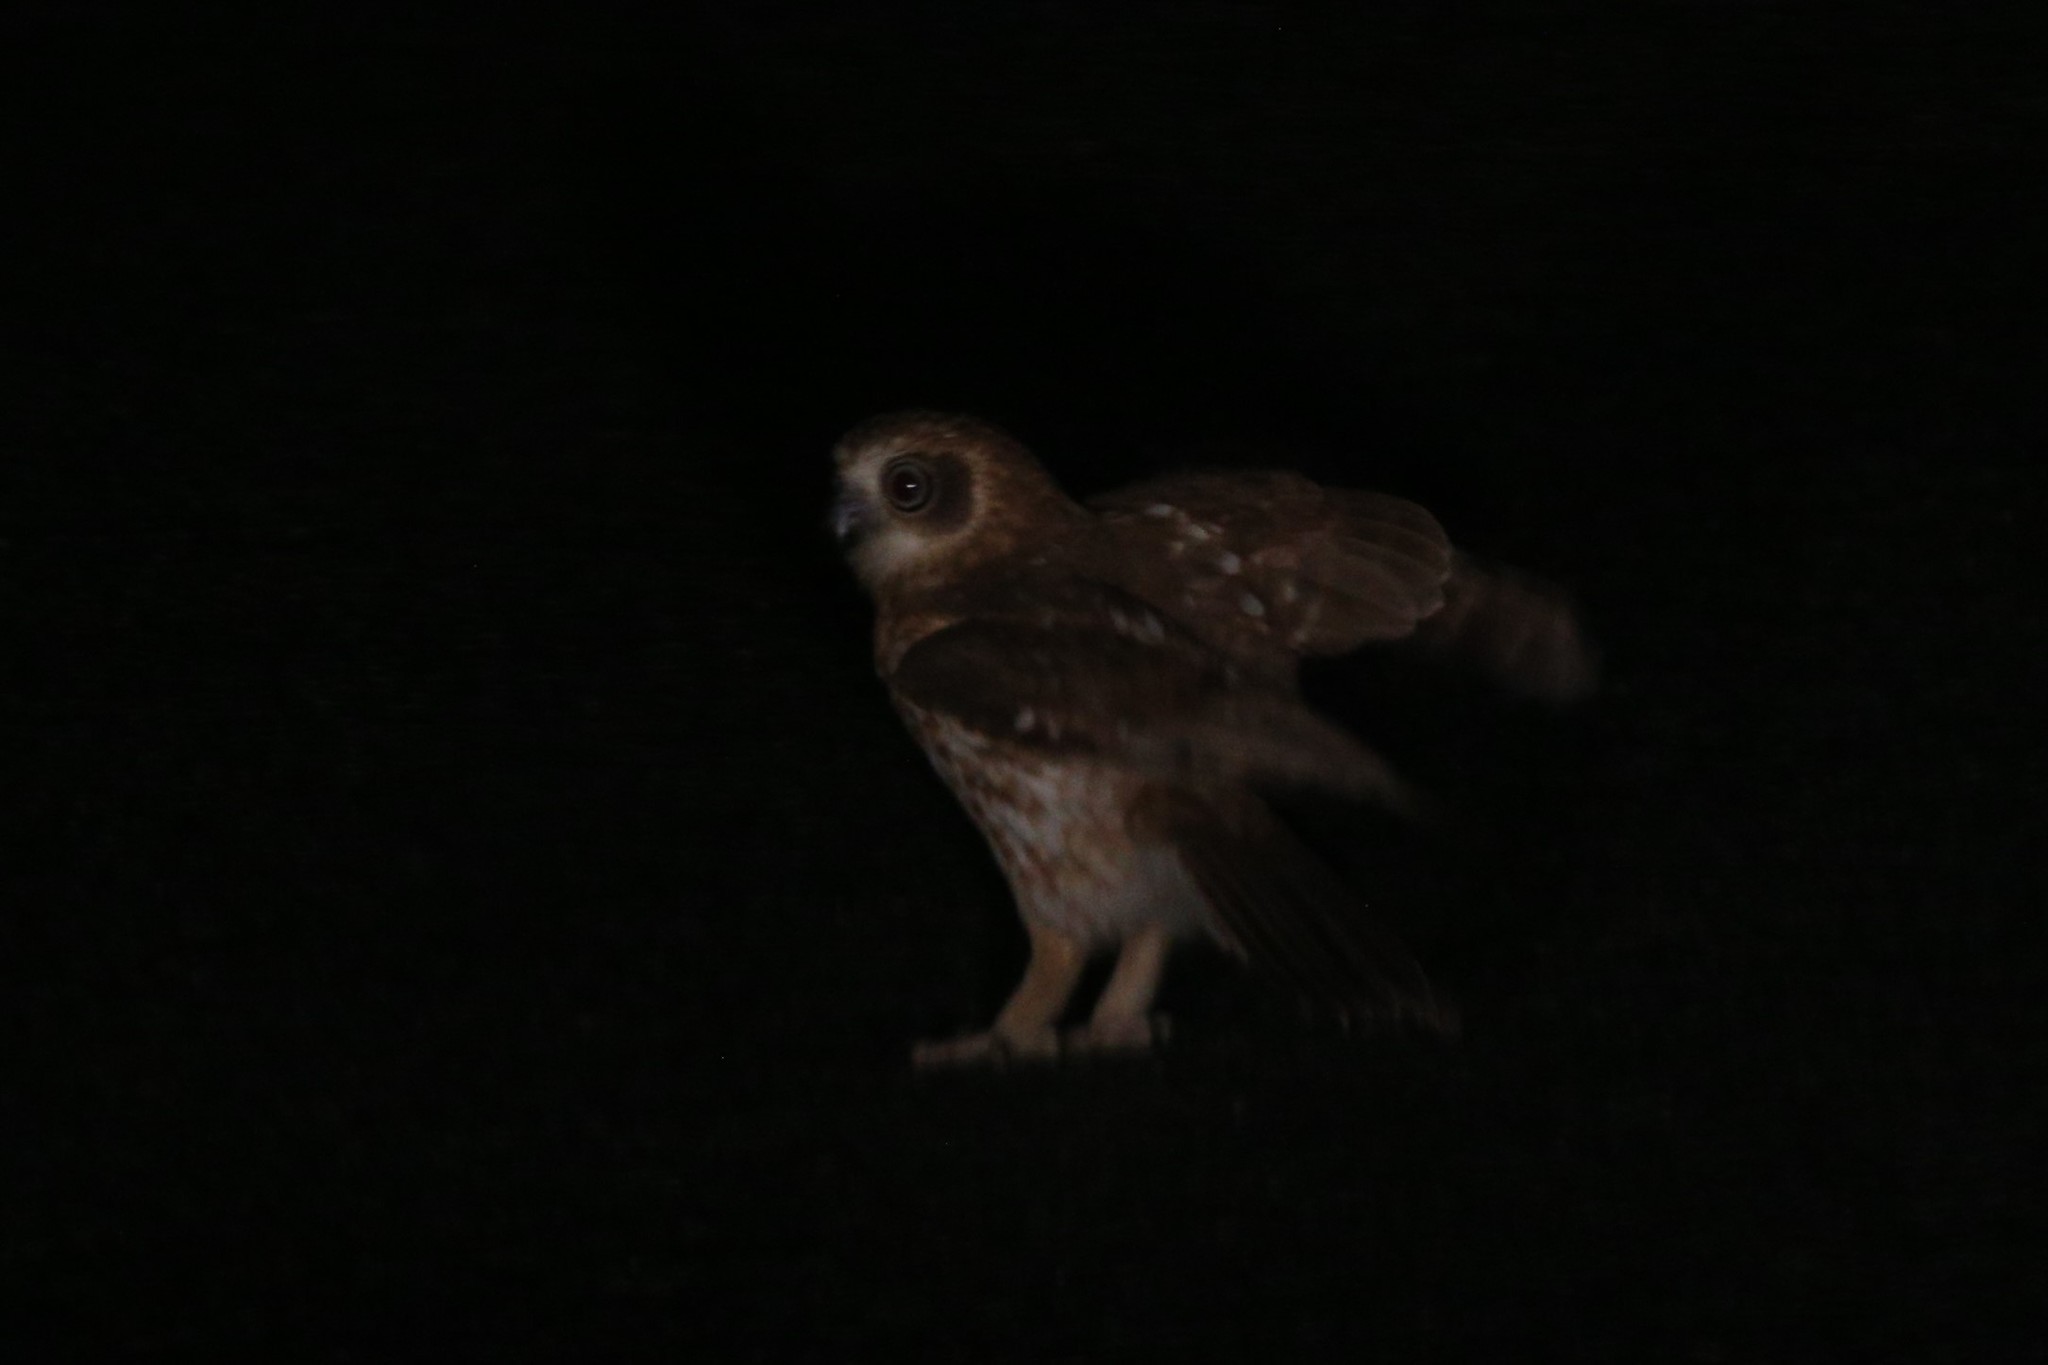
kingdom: Animalia
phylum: Chordata
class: Aves
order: Strigiformes
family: Strigidae
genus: Ninox
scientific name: Ninox boobook
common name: Southern boobook
